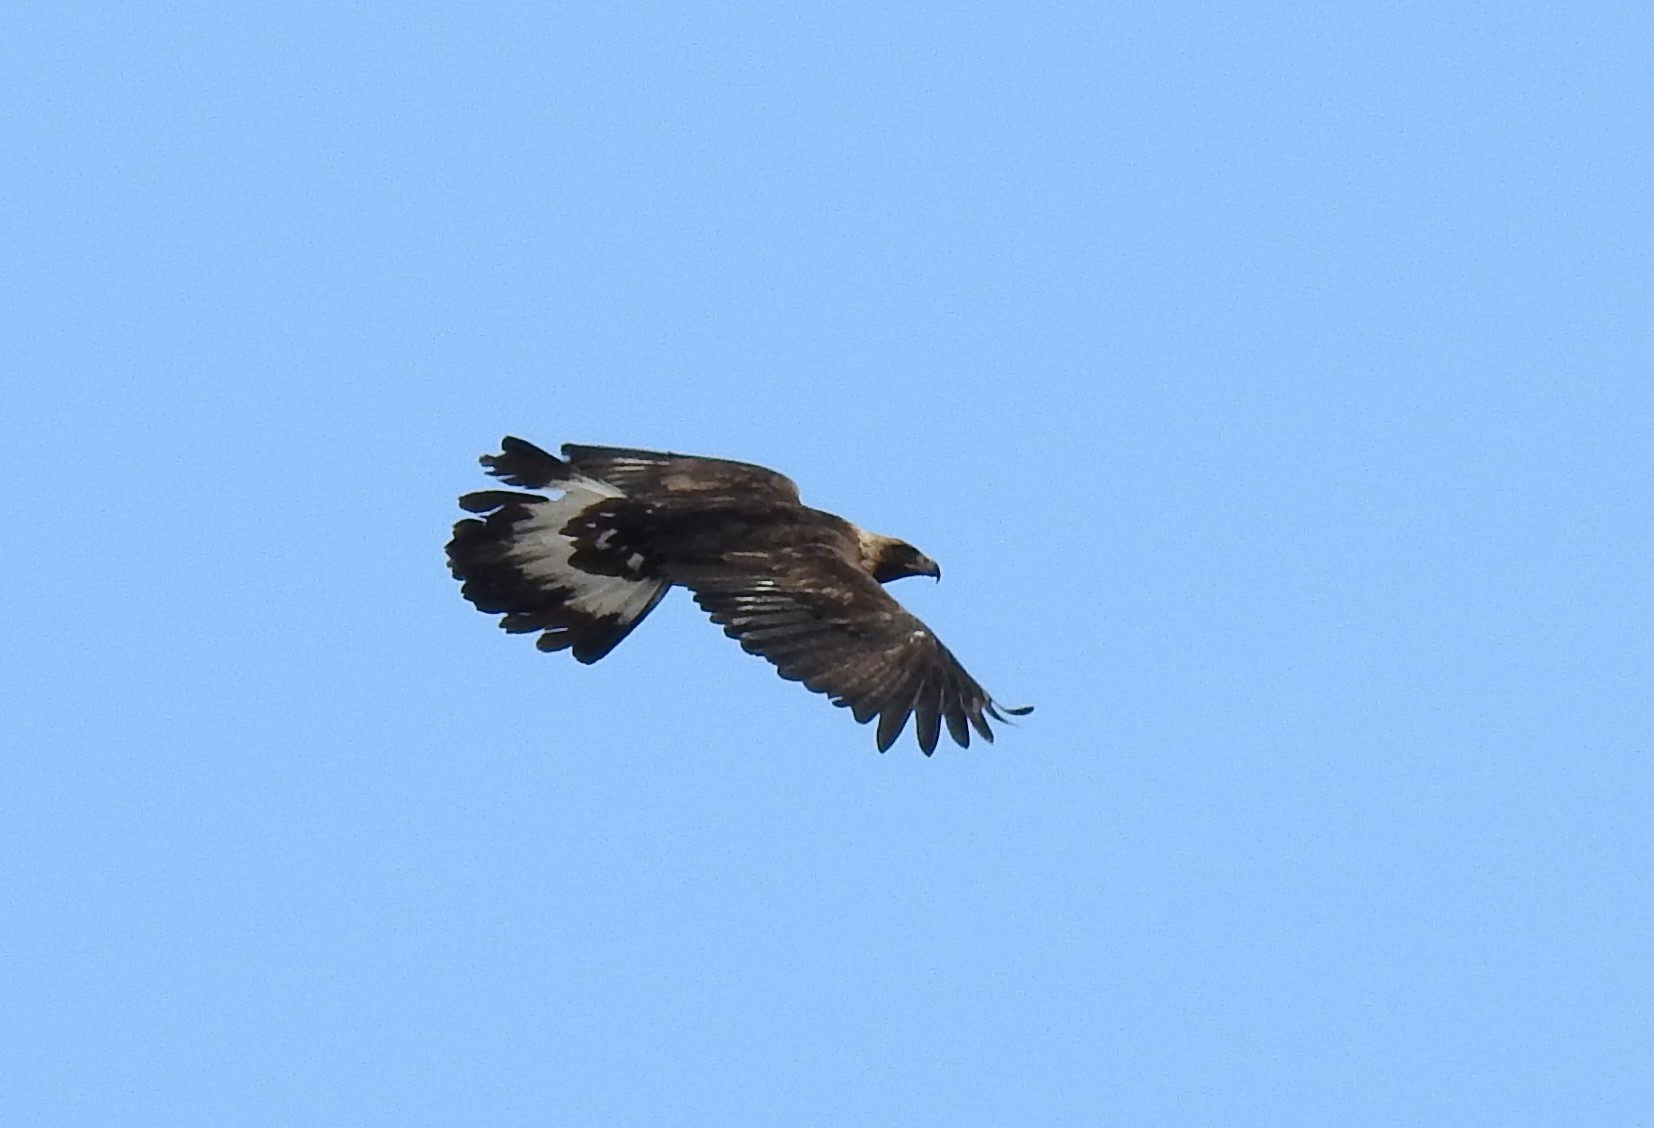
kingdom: Animalia
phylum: Chordata
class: Aves
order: Accipitriformes
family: Accipitridae
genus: Aquila
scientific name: Aquila chrysaetos
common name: Golden eagle
